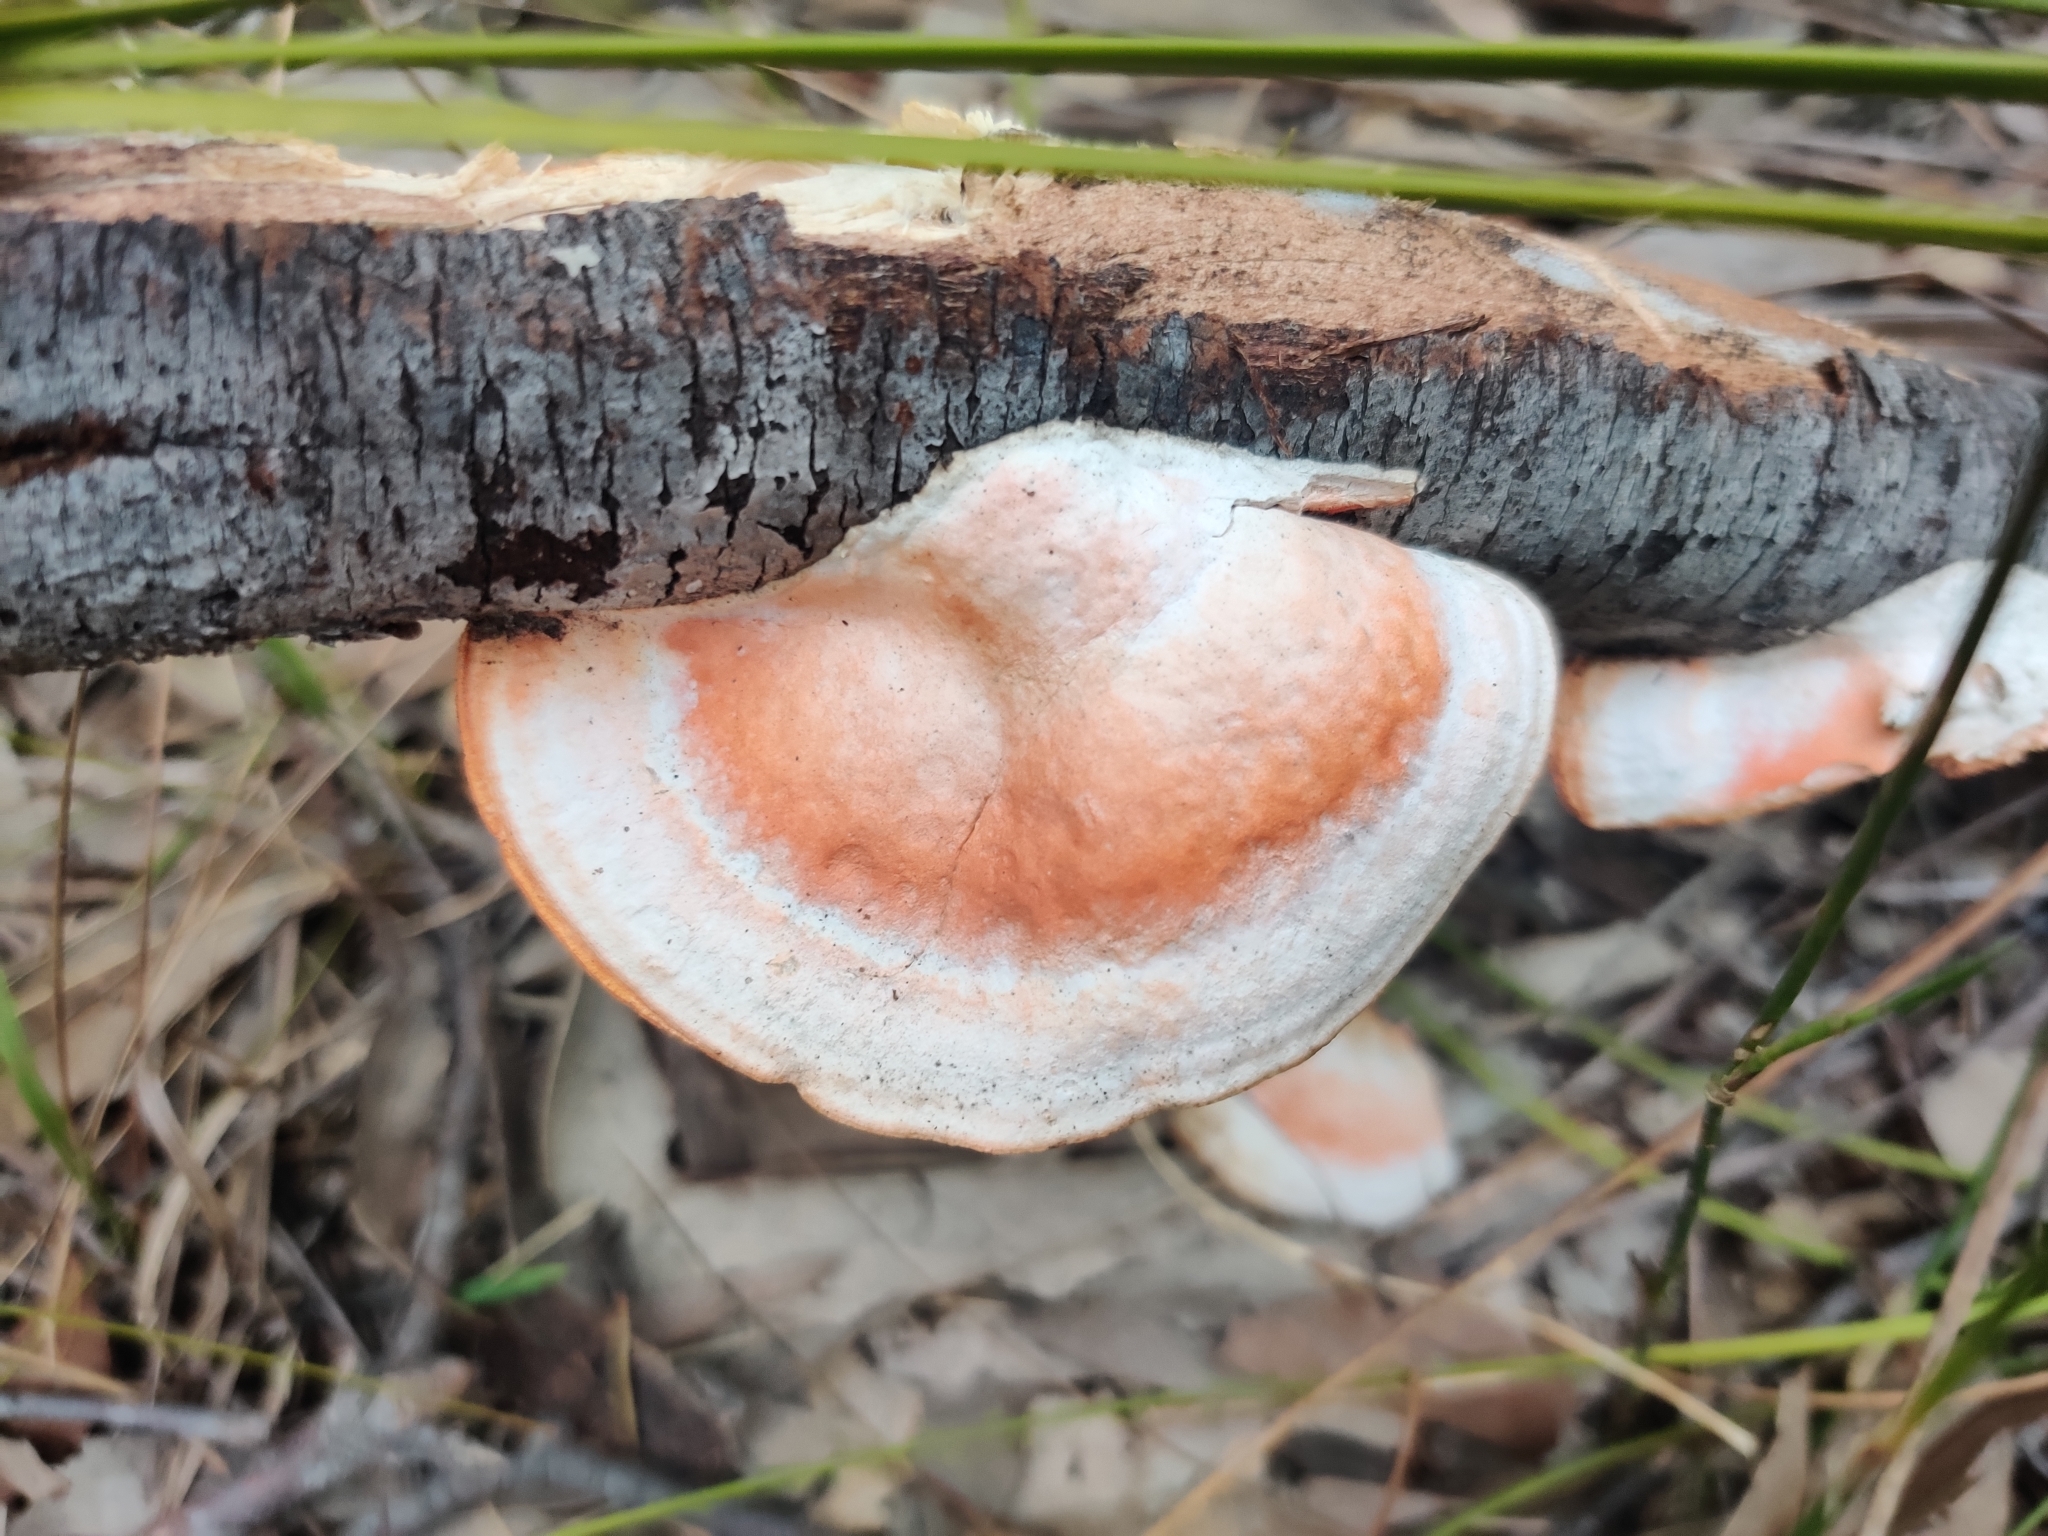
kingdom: Fungi
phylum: Basidiomycota
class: Agaricomycetes
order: Polyporales
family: Polyporaceae
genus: Trametes
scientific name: Trametes coccinea
